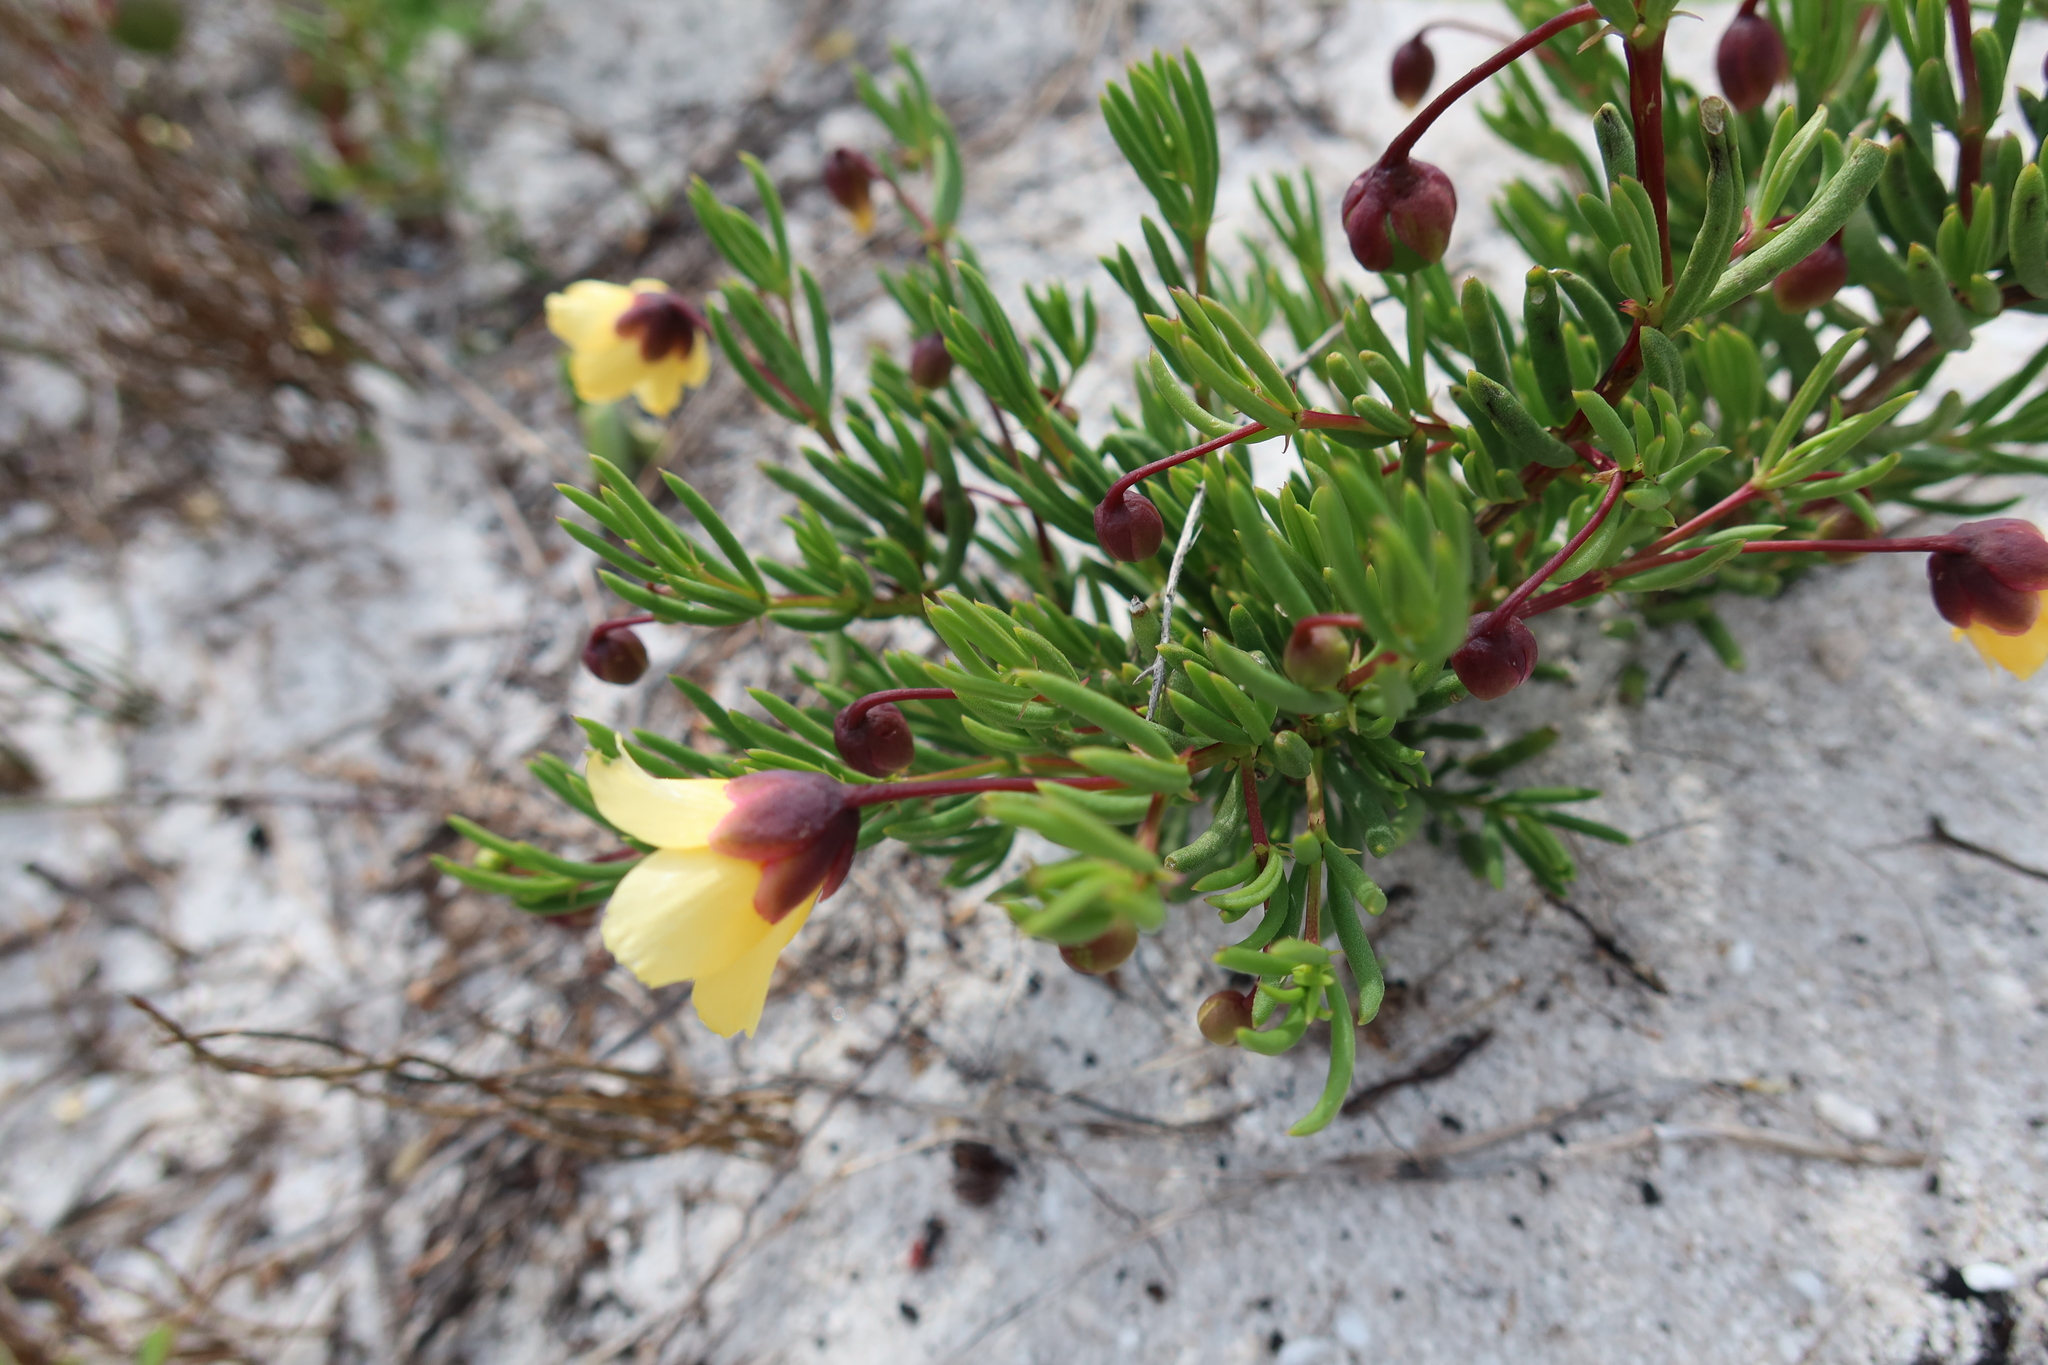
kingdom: Plantae
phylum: Tracheophyta
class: Magnoliopsida
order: Zygophyllales
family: Zygophyllaceae
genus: Roepera
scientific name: Roepera spinosa
